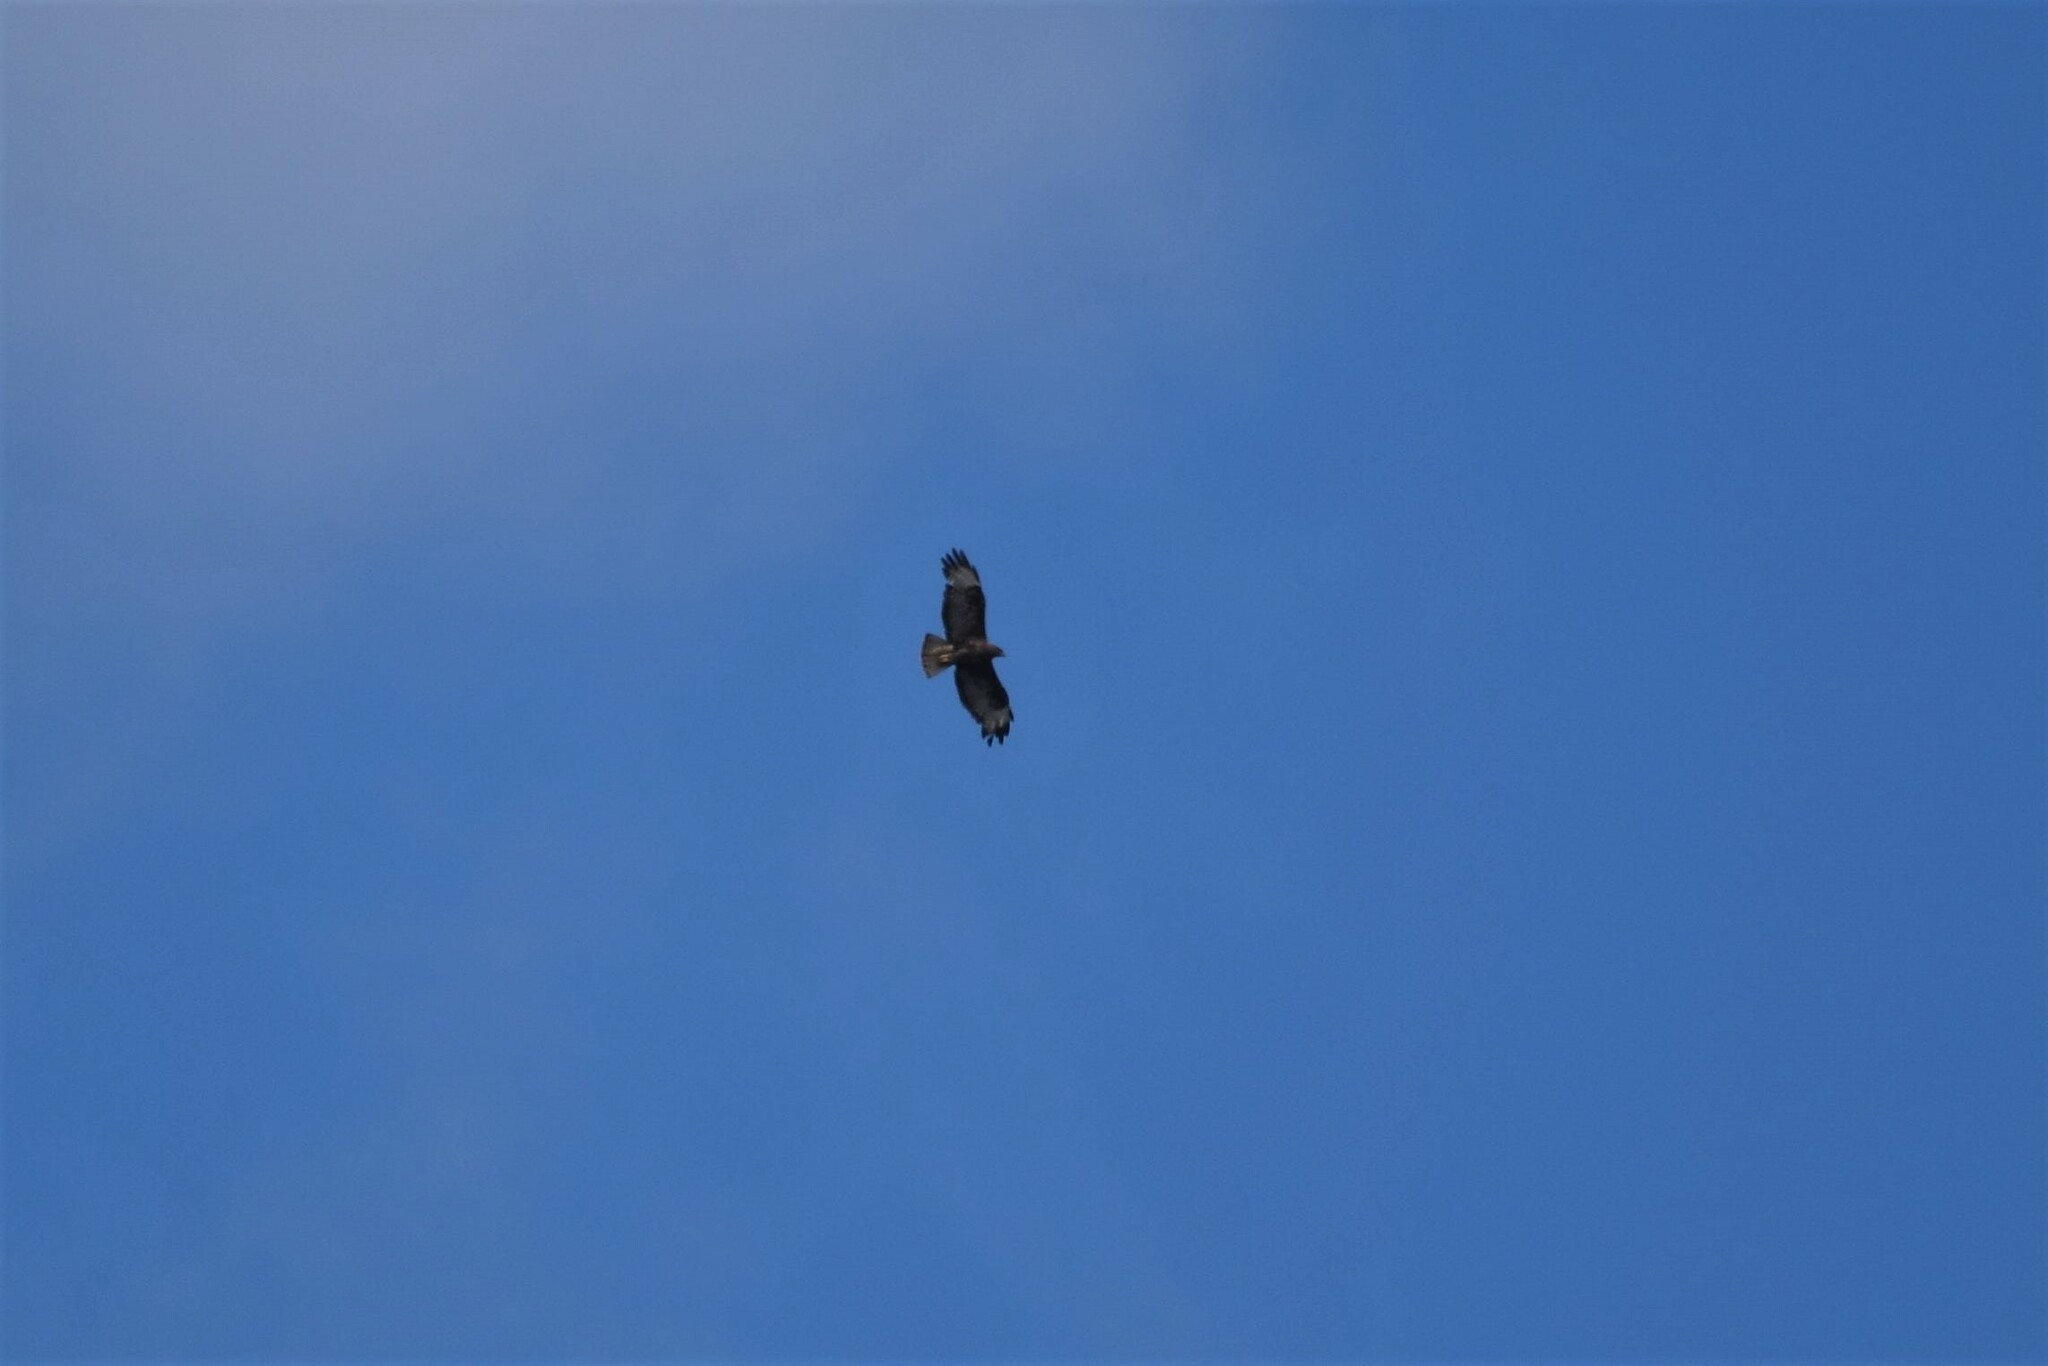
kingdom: Animalia
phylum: Chordata
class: Aves
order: Accipitriformes
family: Accipitridae
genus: Buteo
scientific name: Buteo buteo
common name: Common buzzard
